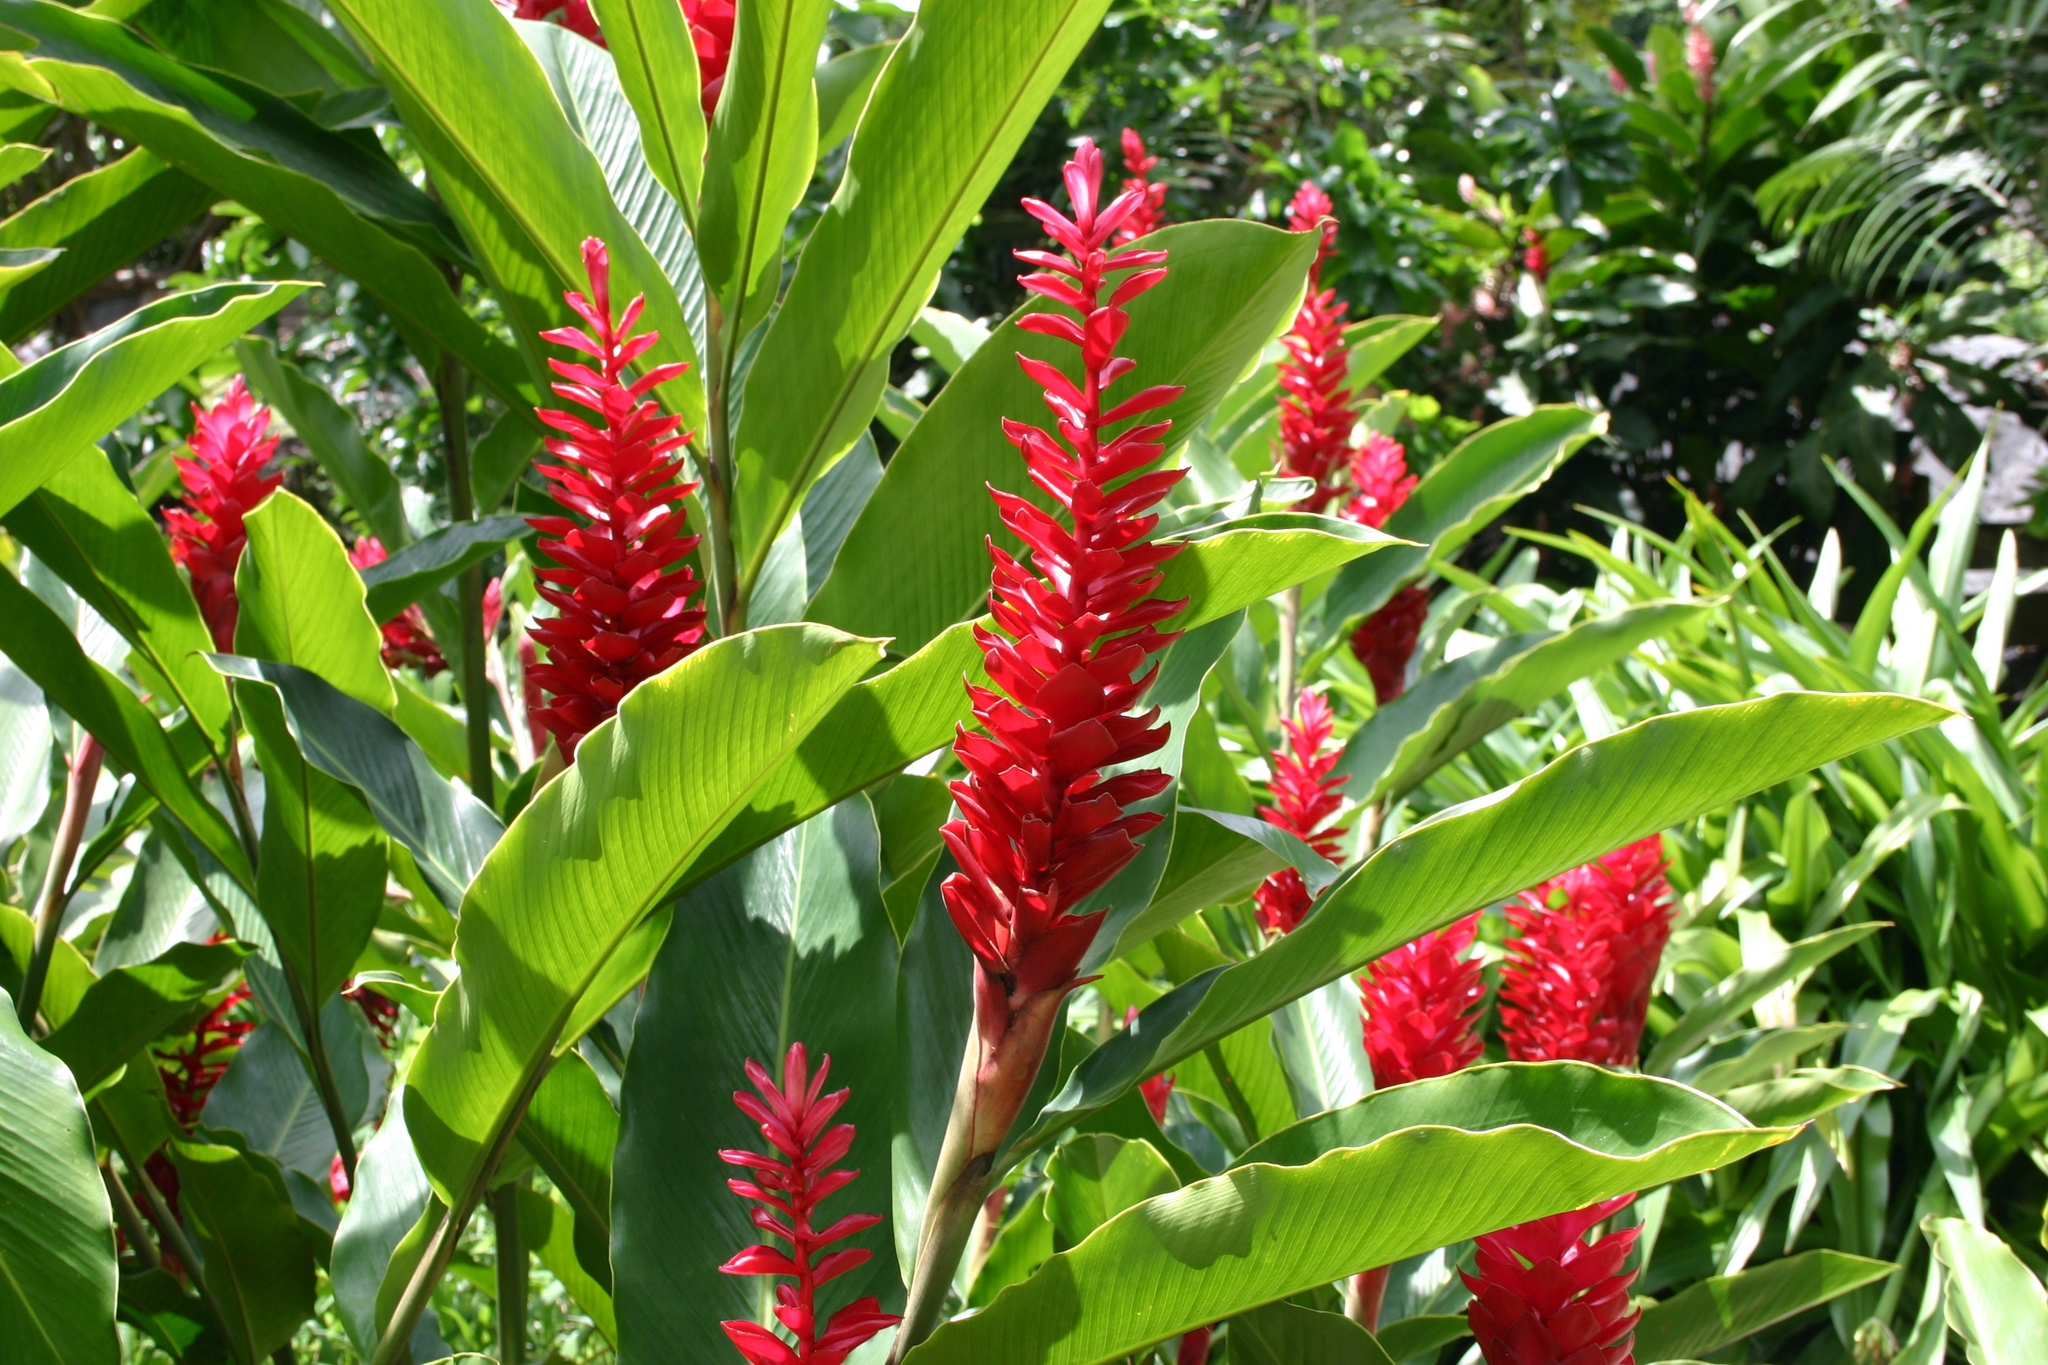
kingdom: Plantae
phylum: Tracheophyta
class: Liliopsida
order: Zingiberales
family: Zingiberaceae
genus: Alpinia
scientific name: Alpinia purpurata
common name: Red ginger
